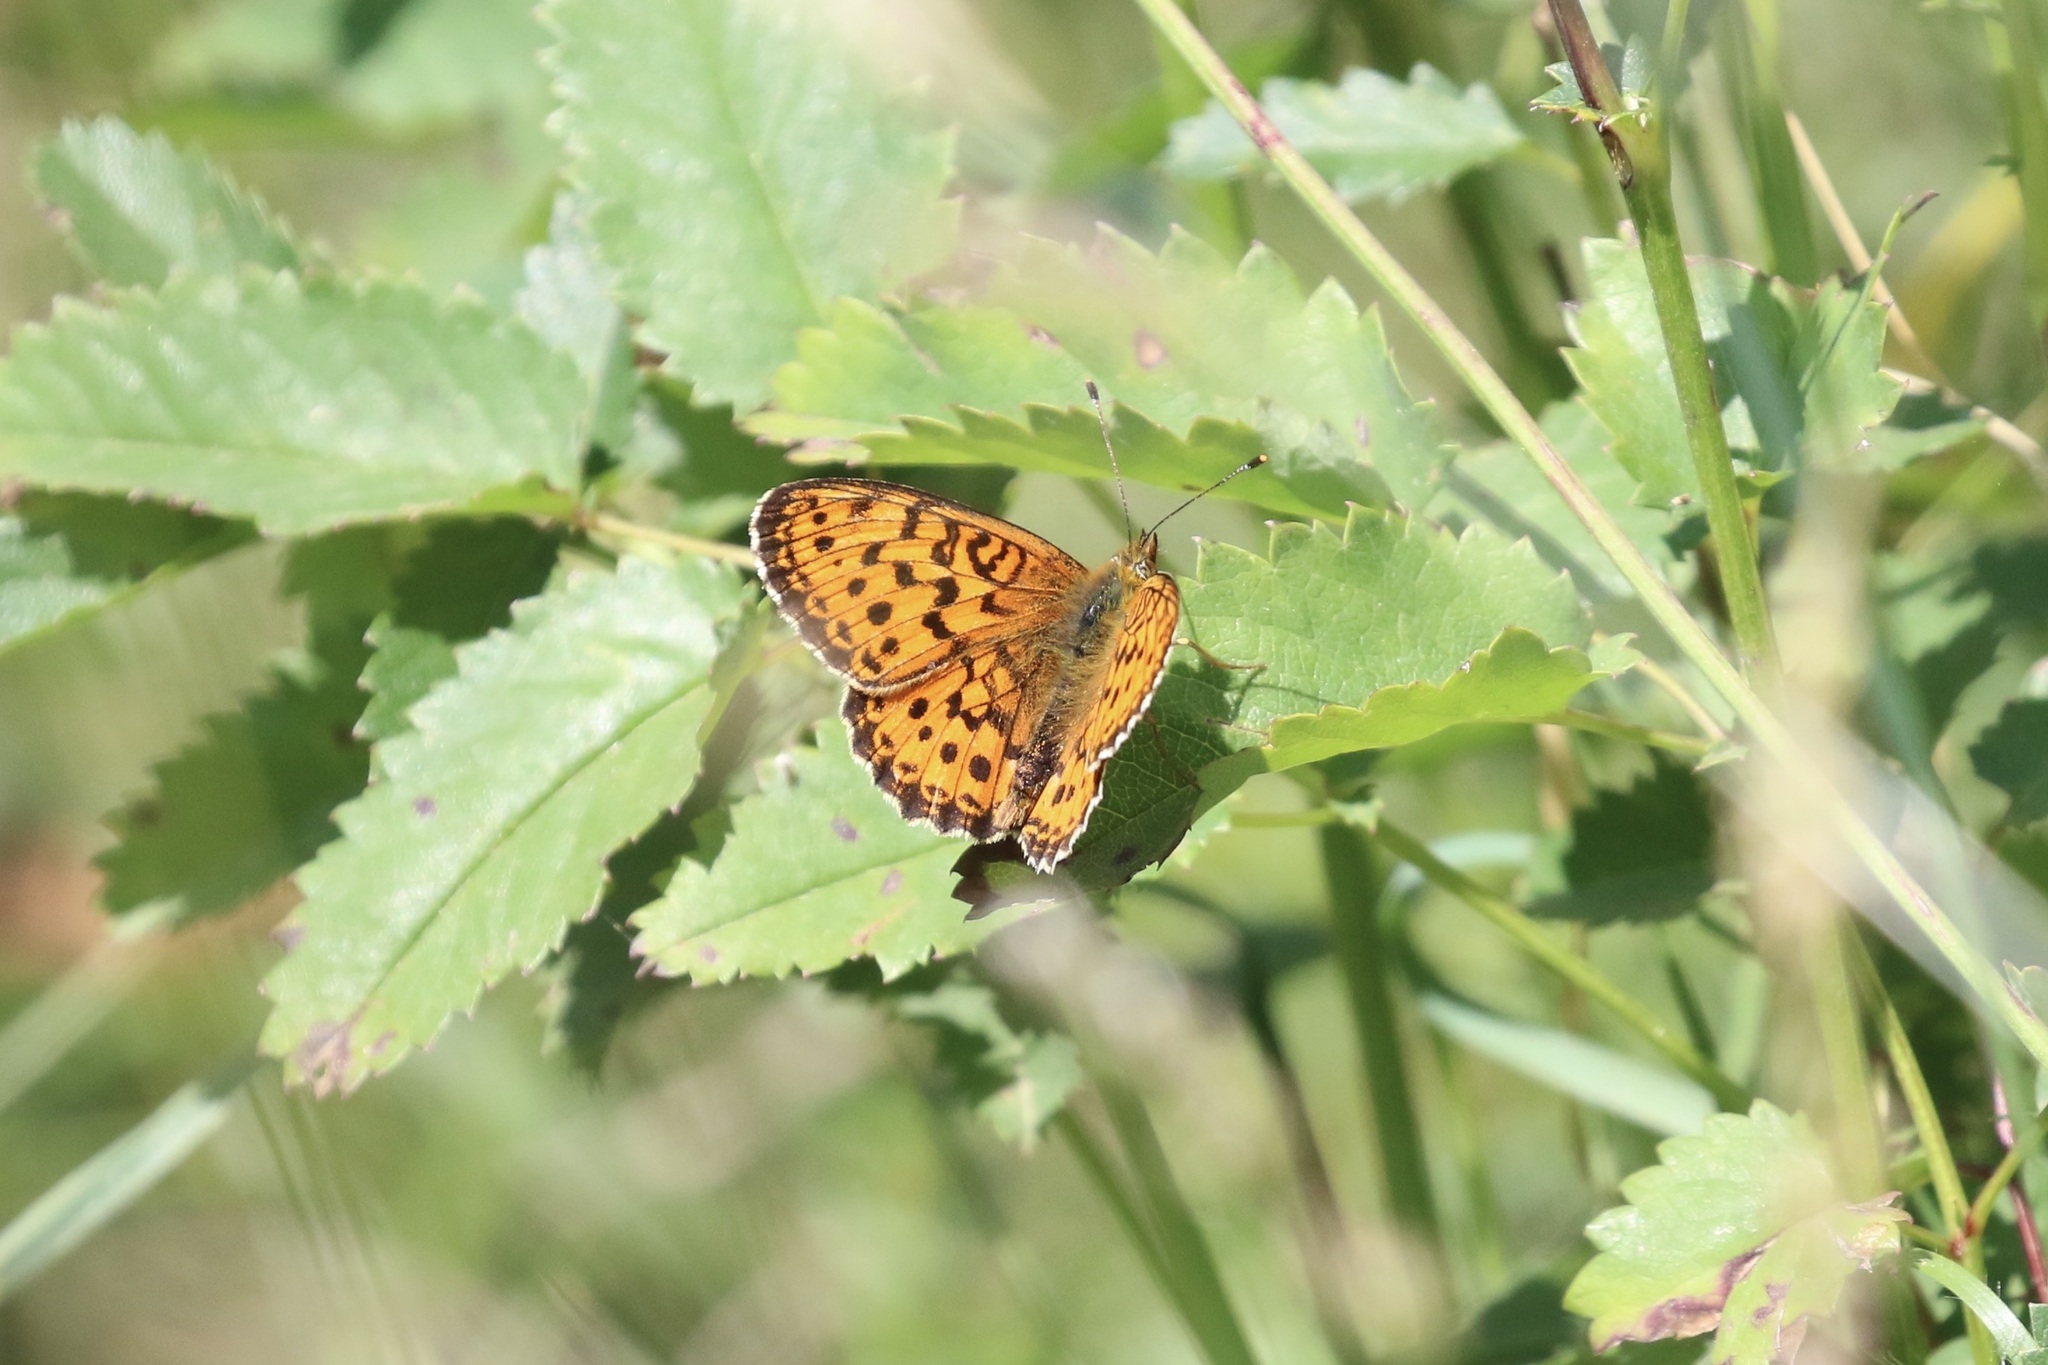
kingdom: Animalia
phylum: Arthropoda
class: Insecta
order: Lepidoptera
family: Nymphalidae
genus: Brenthis
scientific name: Brenthis ino
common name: Lesser marbled fritillary
